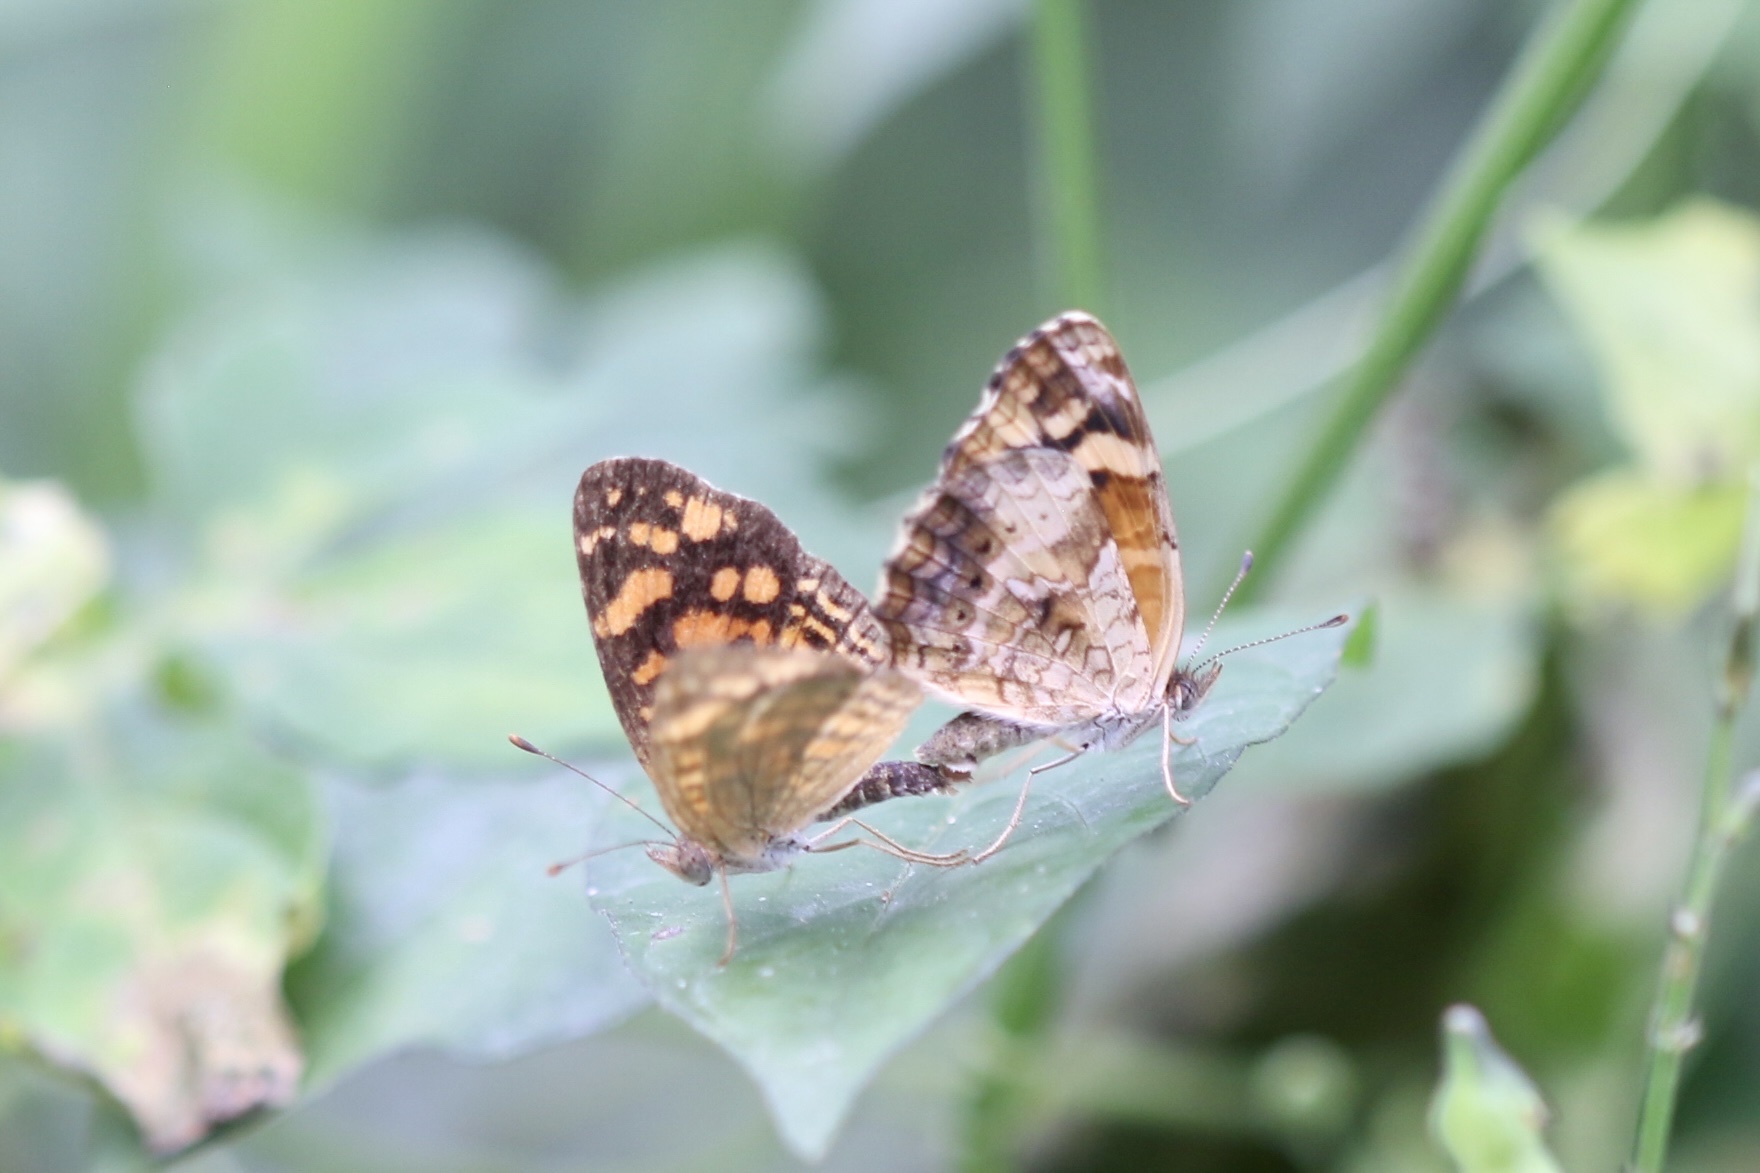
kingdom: Animalia
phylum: Arthropoda
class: Insecta
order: Lepidoptera
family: Nymphalidae
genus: Anthanassa
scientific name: Anthanassa hermas
